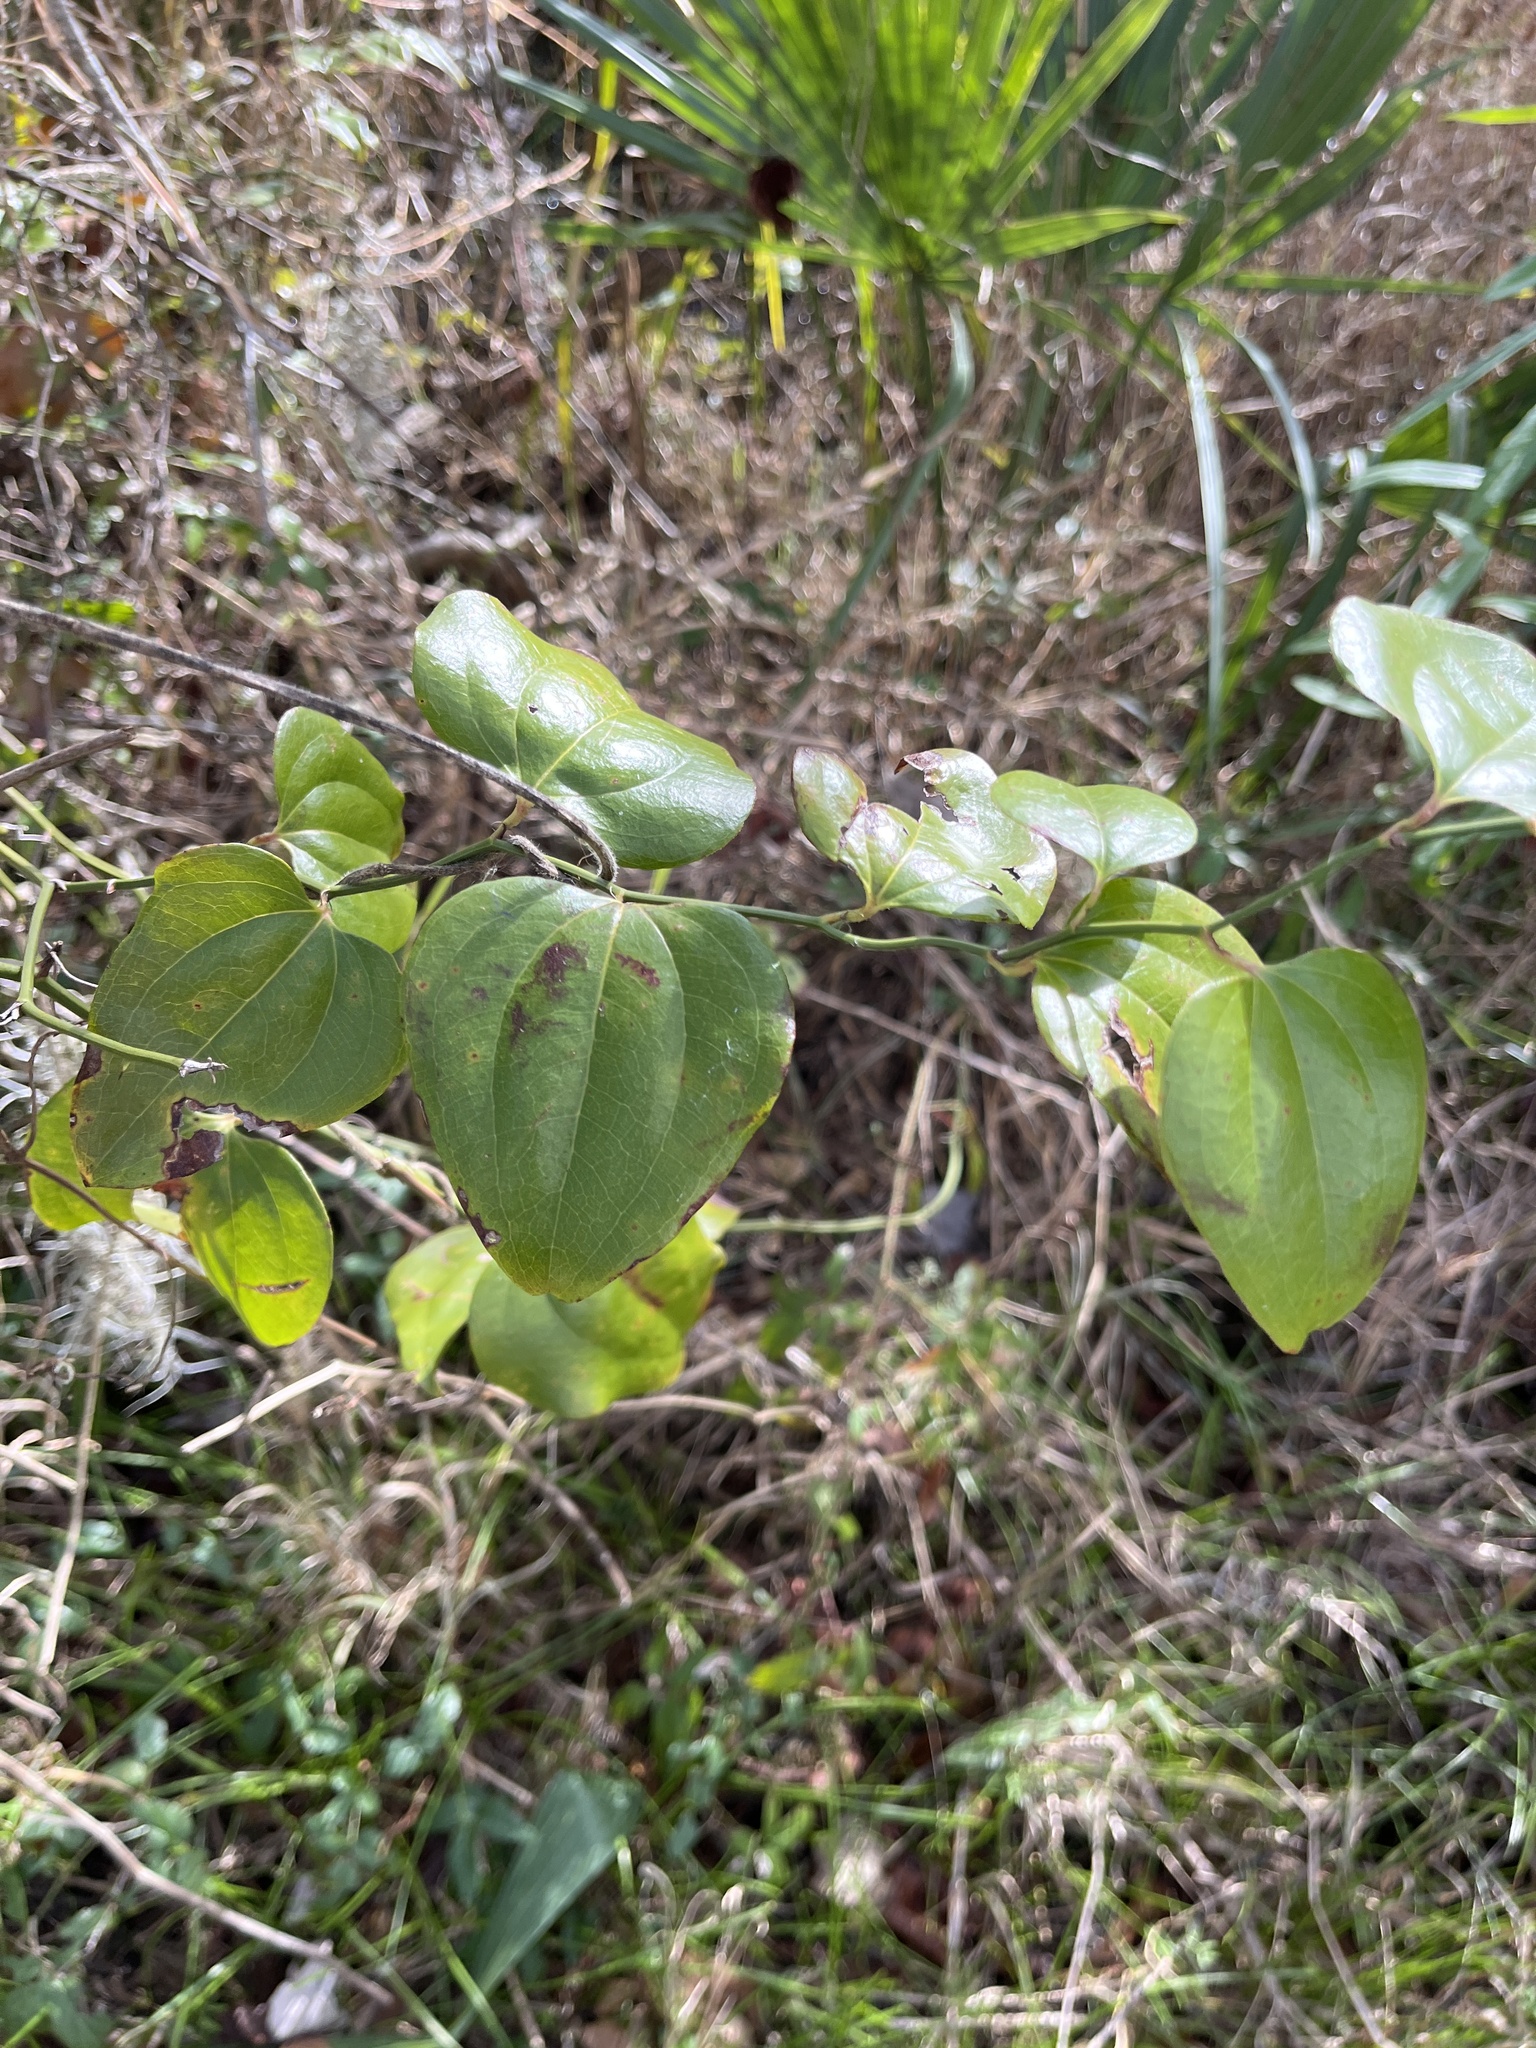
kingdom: Plantae
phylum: Tracheophyta
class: Liliopsida
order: Liliales
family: Smilacaceae
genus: Smilax
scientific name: Smilax rotundifolia
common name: Bullbriar
